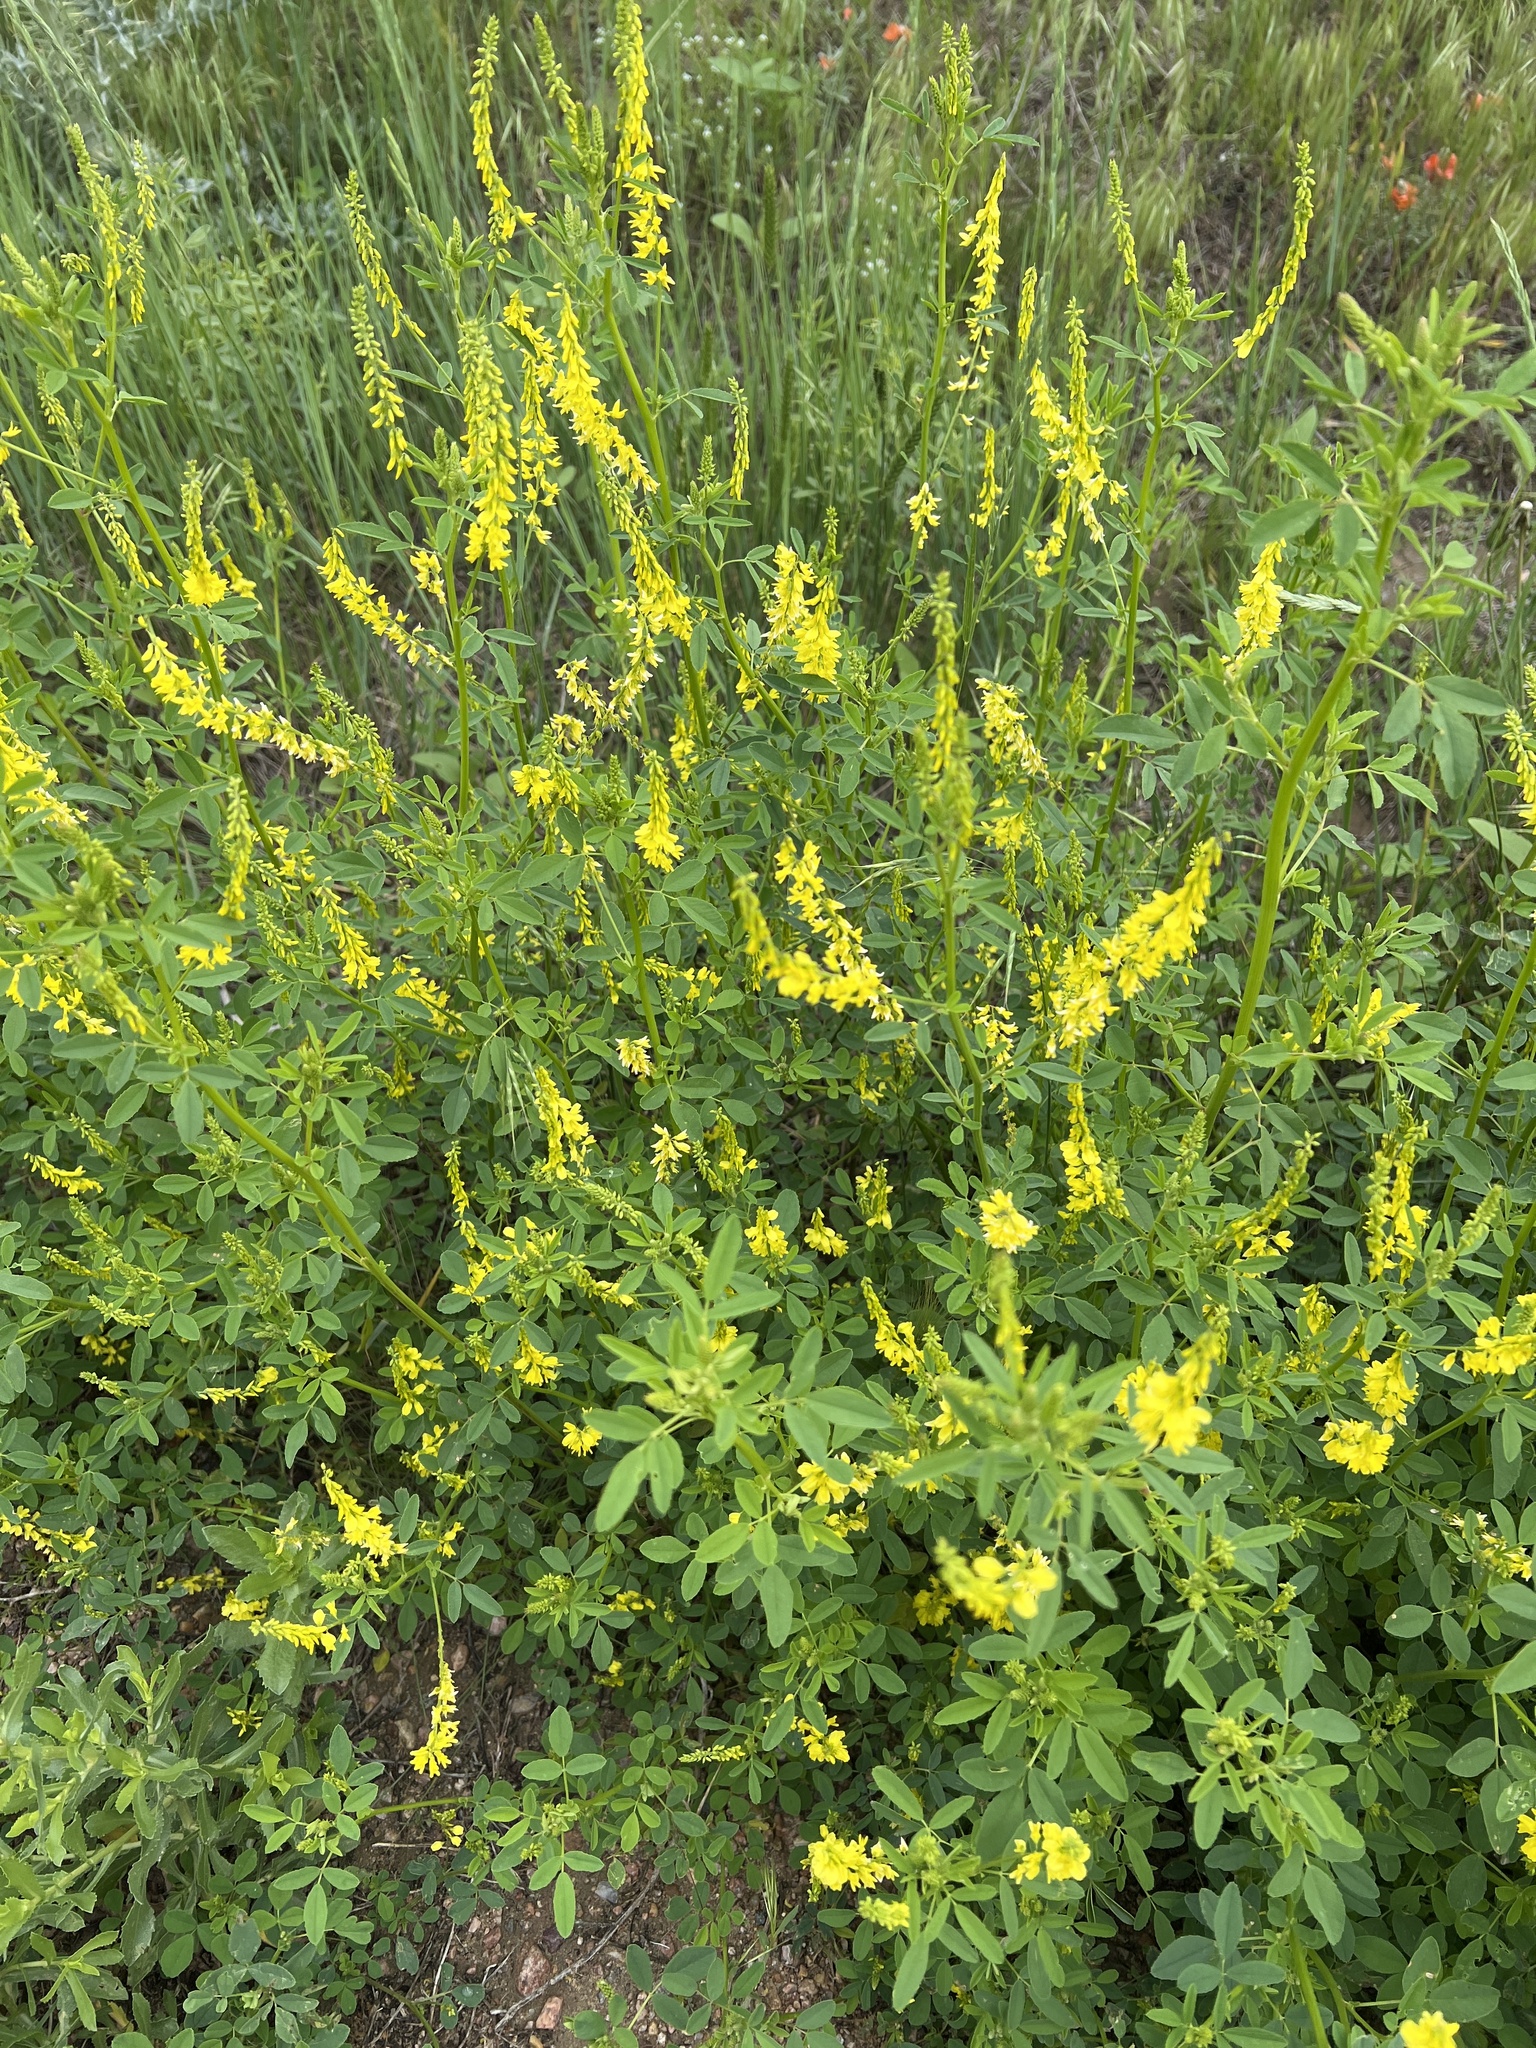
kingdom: Plantae
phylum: Tracheophyta
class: Magnoliopsida
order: Fabales
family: Fabaceae
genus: Melilotus
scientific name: Melilotus officinalis
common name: Sweetclover
